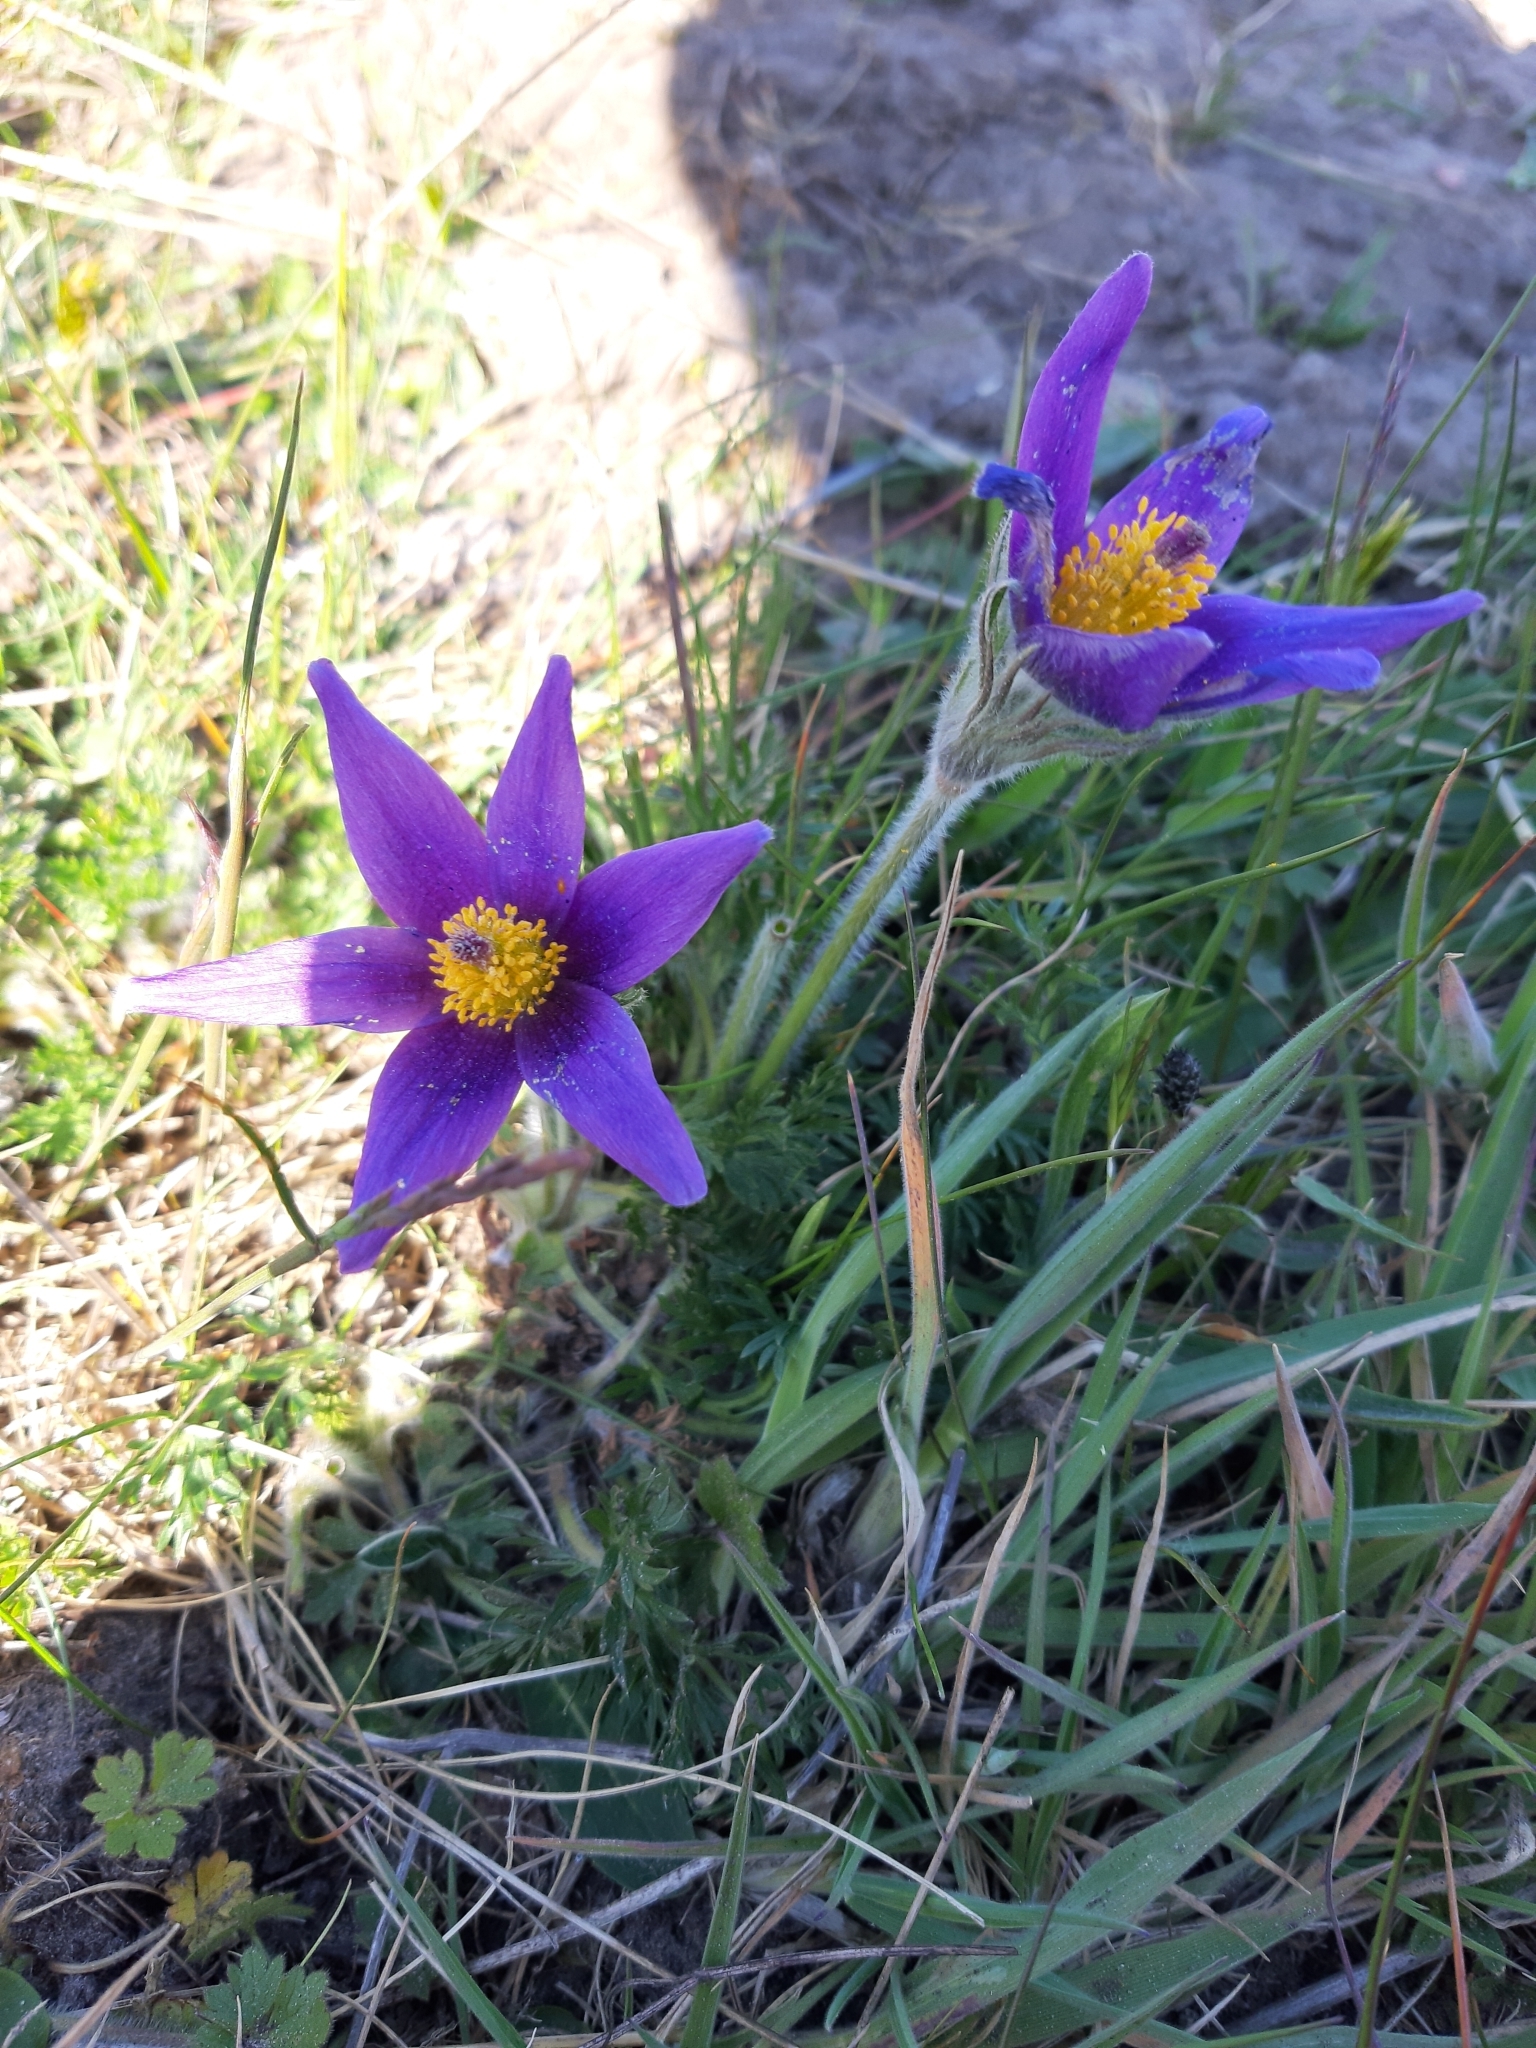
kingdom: Plantae
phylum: Tracheophyta
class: Magnoliopsida
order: Ranunculales
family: Ranunculaceae
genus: Pulsatilla
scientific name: Pulsatilla vulgaris
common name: Pasqueflower
